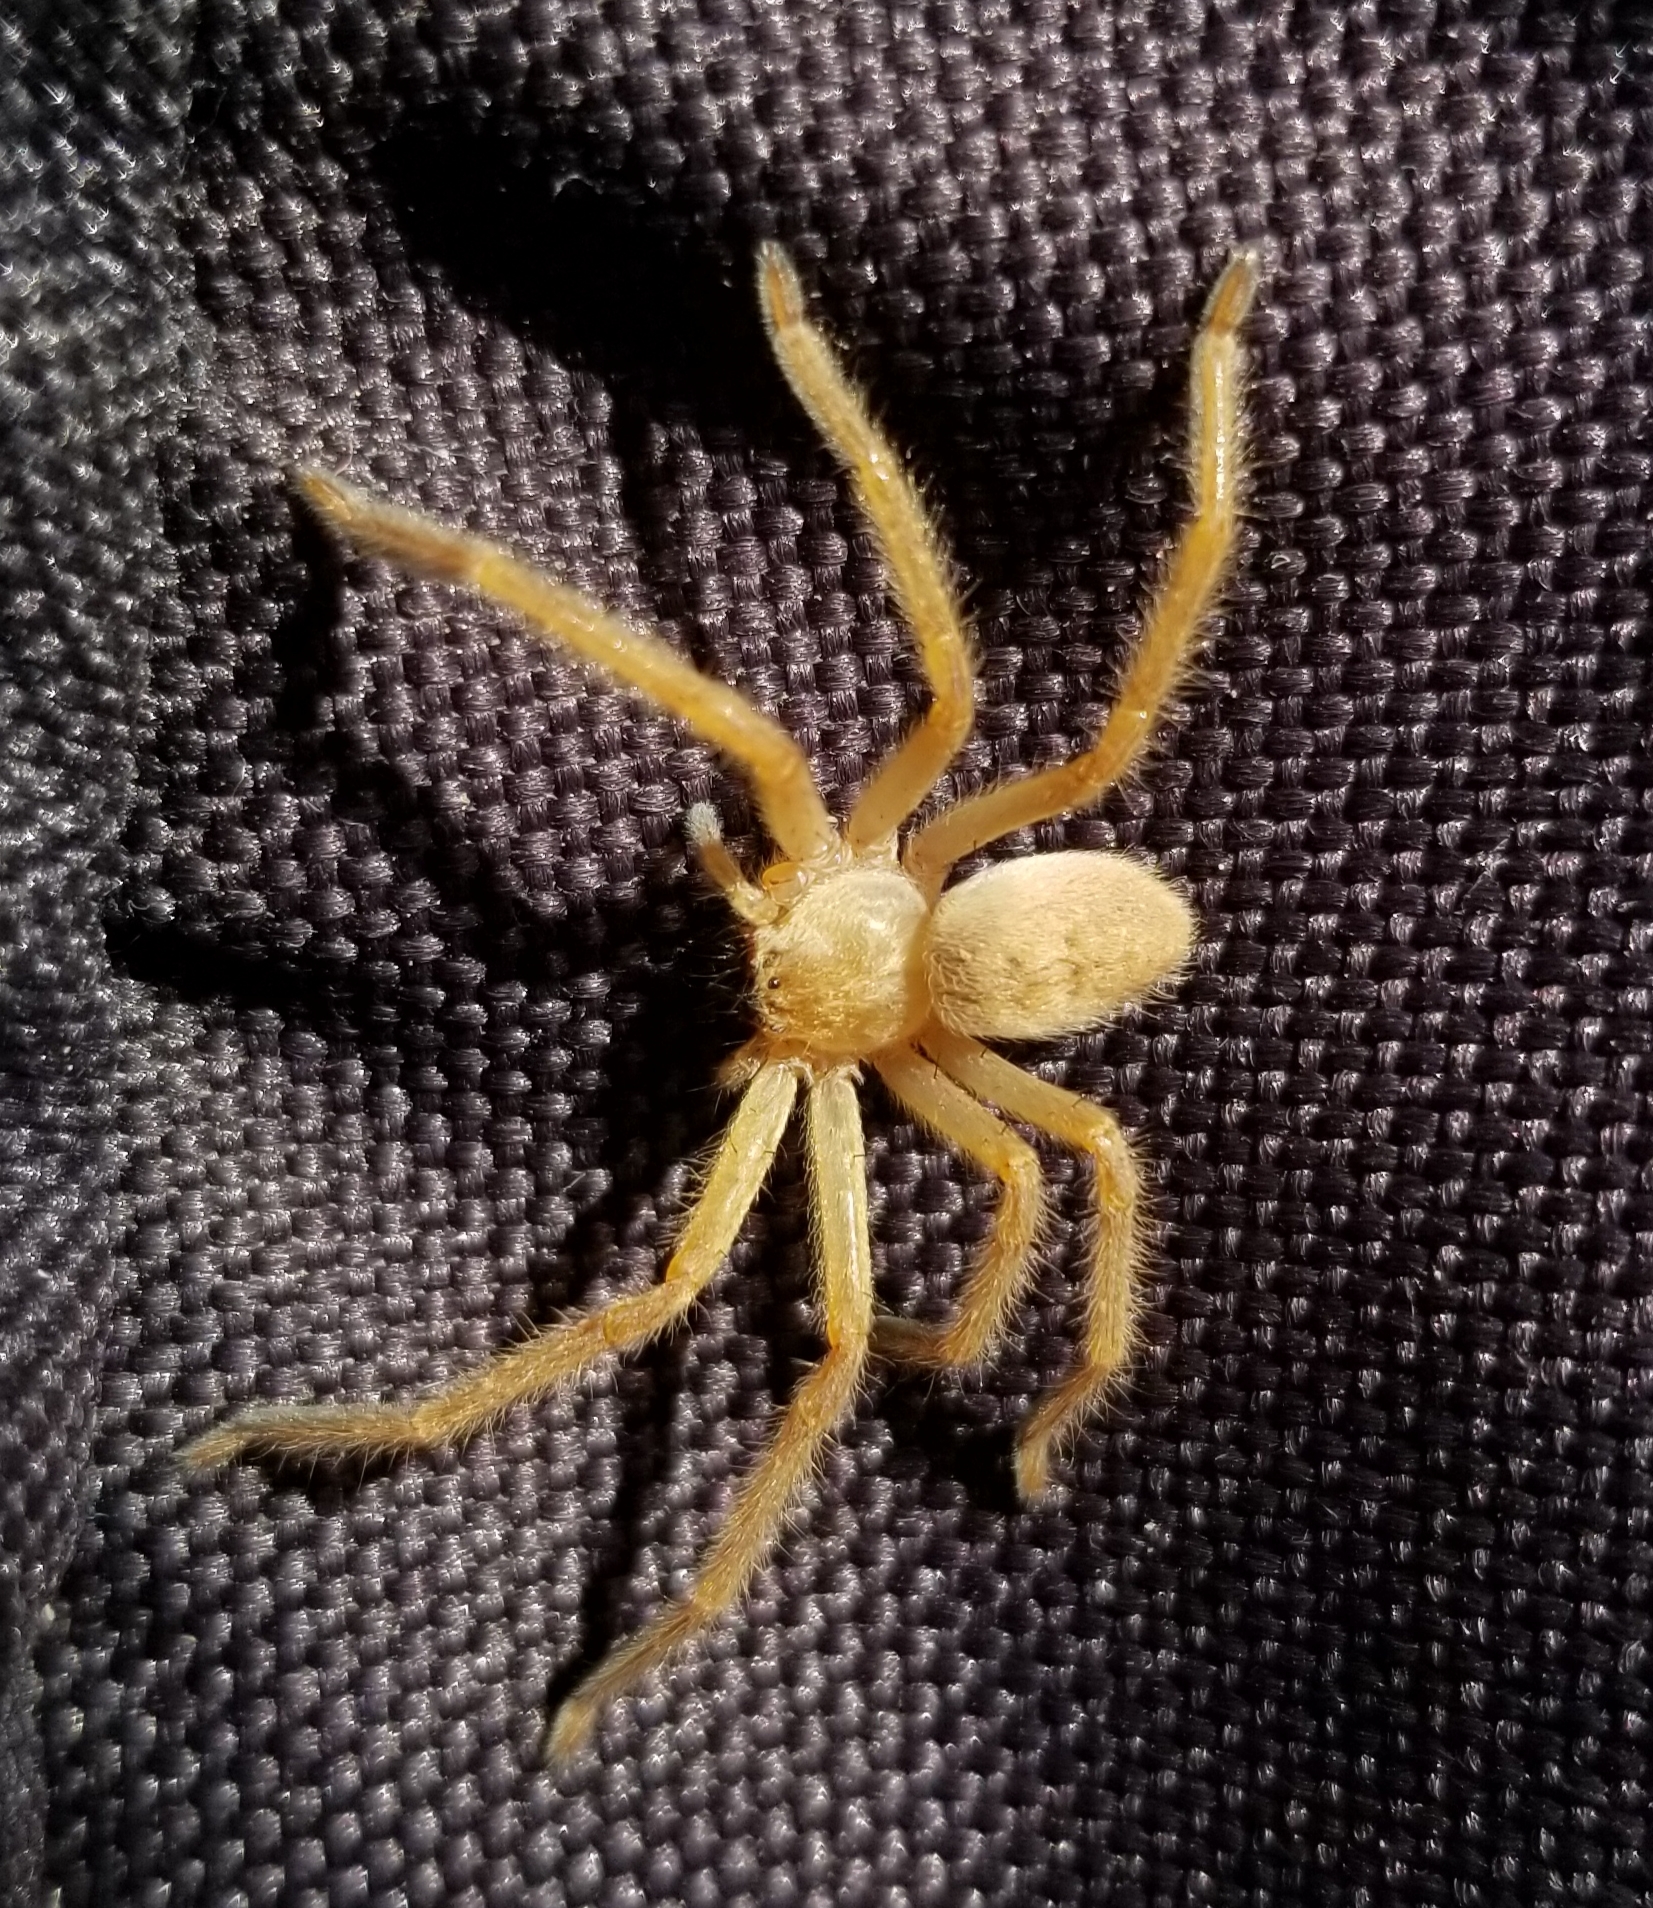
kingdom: Animalia
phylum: Arthropoda
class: Arachnida
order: Araneae
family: Sparassidae
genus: Olios
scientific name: Olios giganteus
